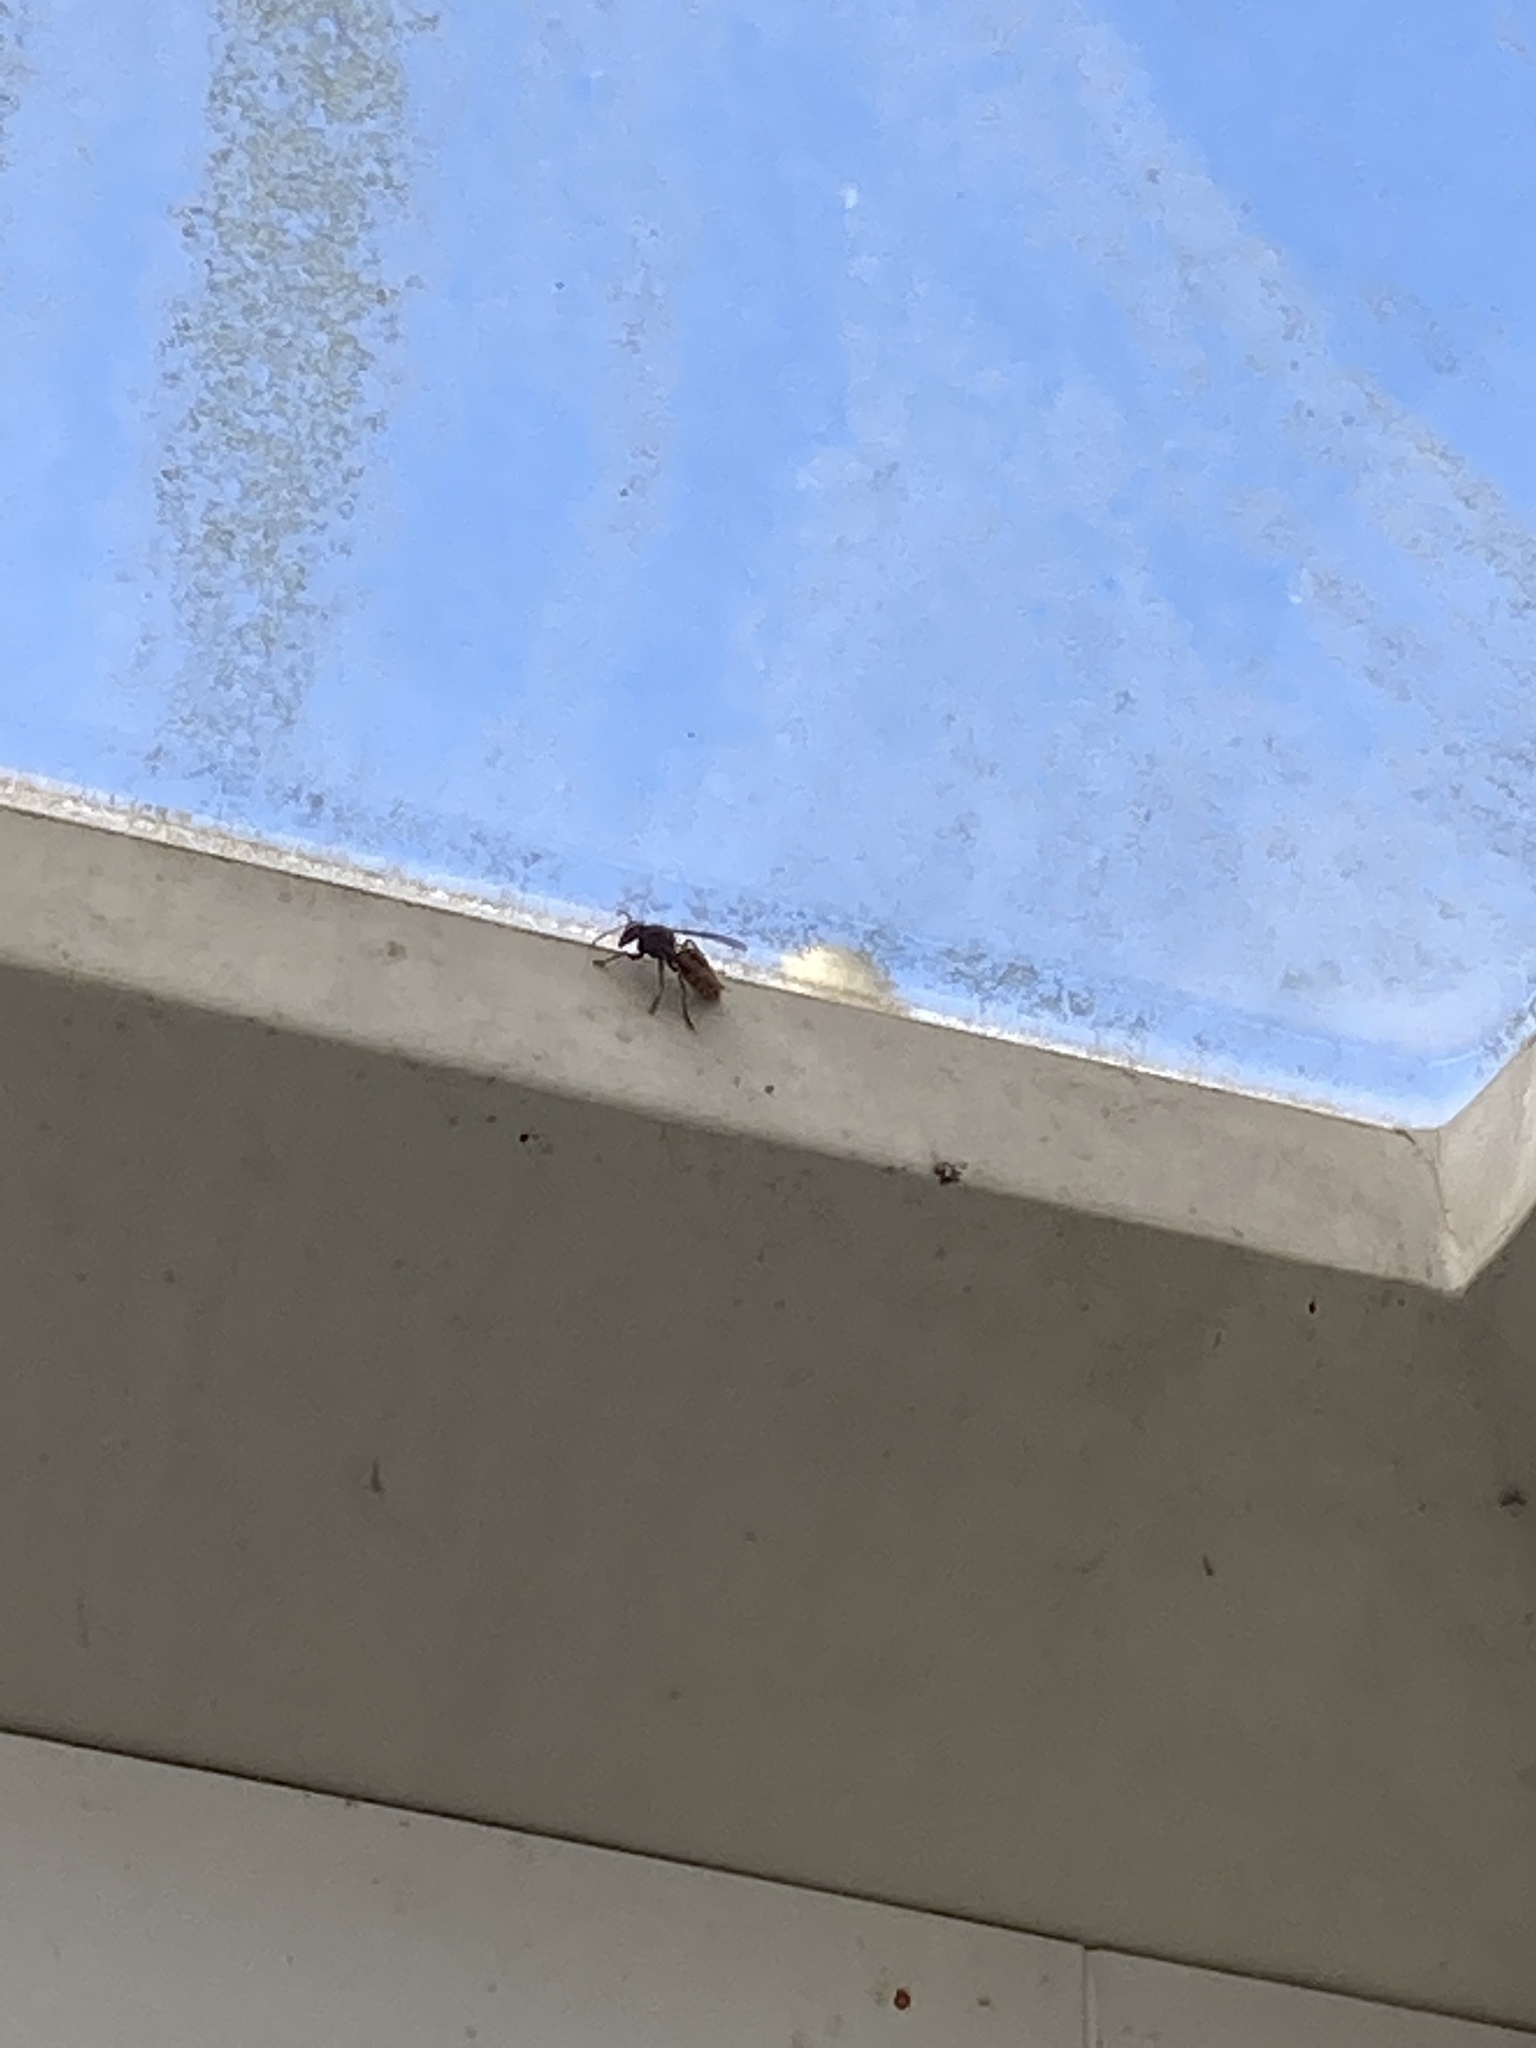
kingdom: Animalia
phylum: Arthropoda
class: Insecta
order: Hymenoptera
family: Vespidae
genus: Vespa
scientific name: Vespa crabro
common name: Hornet
